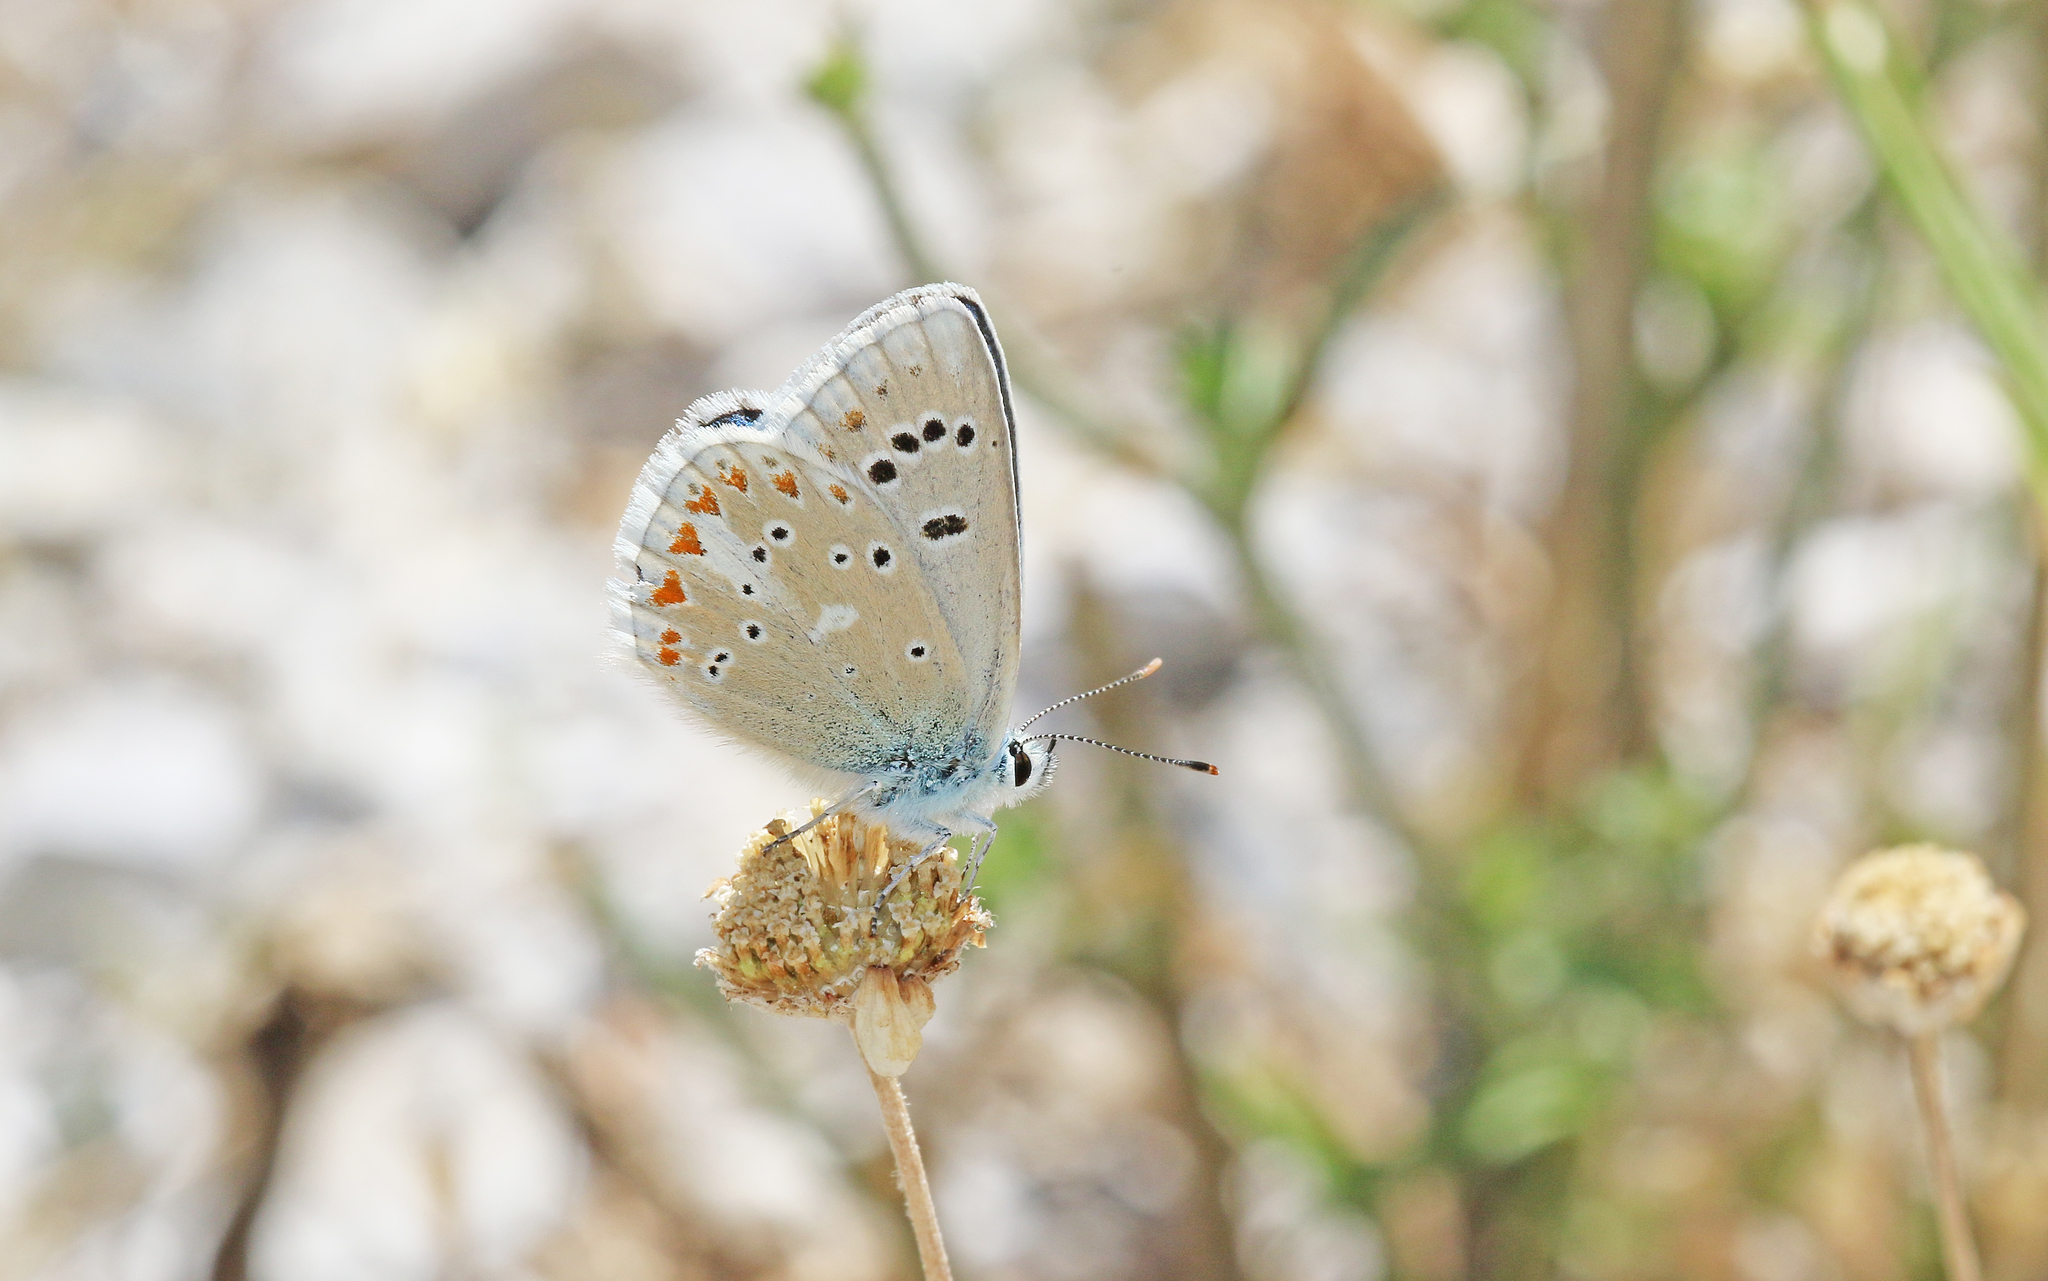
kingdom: Animalia
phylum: Arthropoda
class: Insecta
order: Lepidoptera
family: Lycaenidae
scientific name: Lycaenidae
